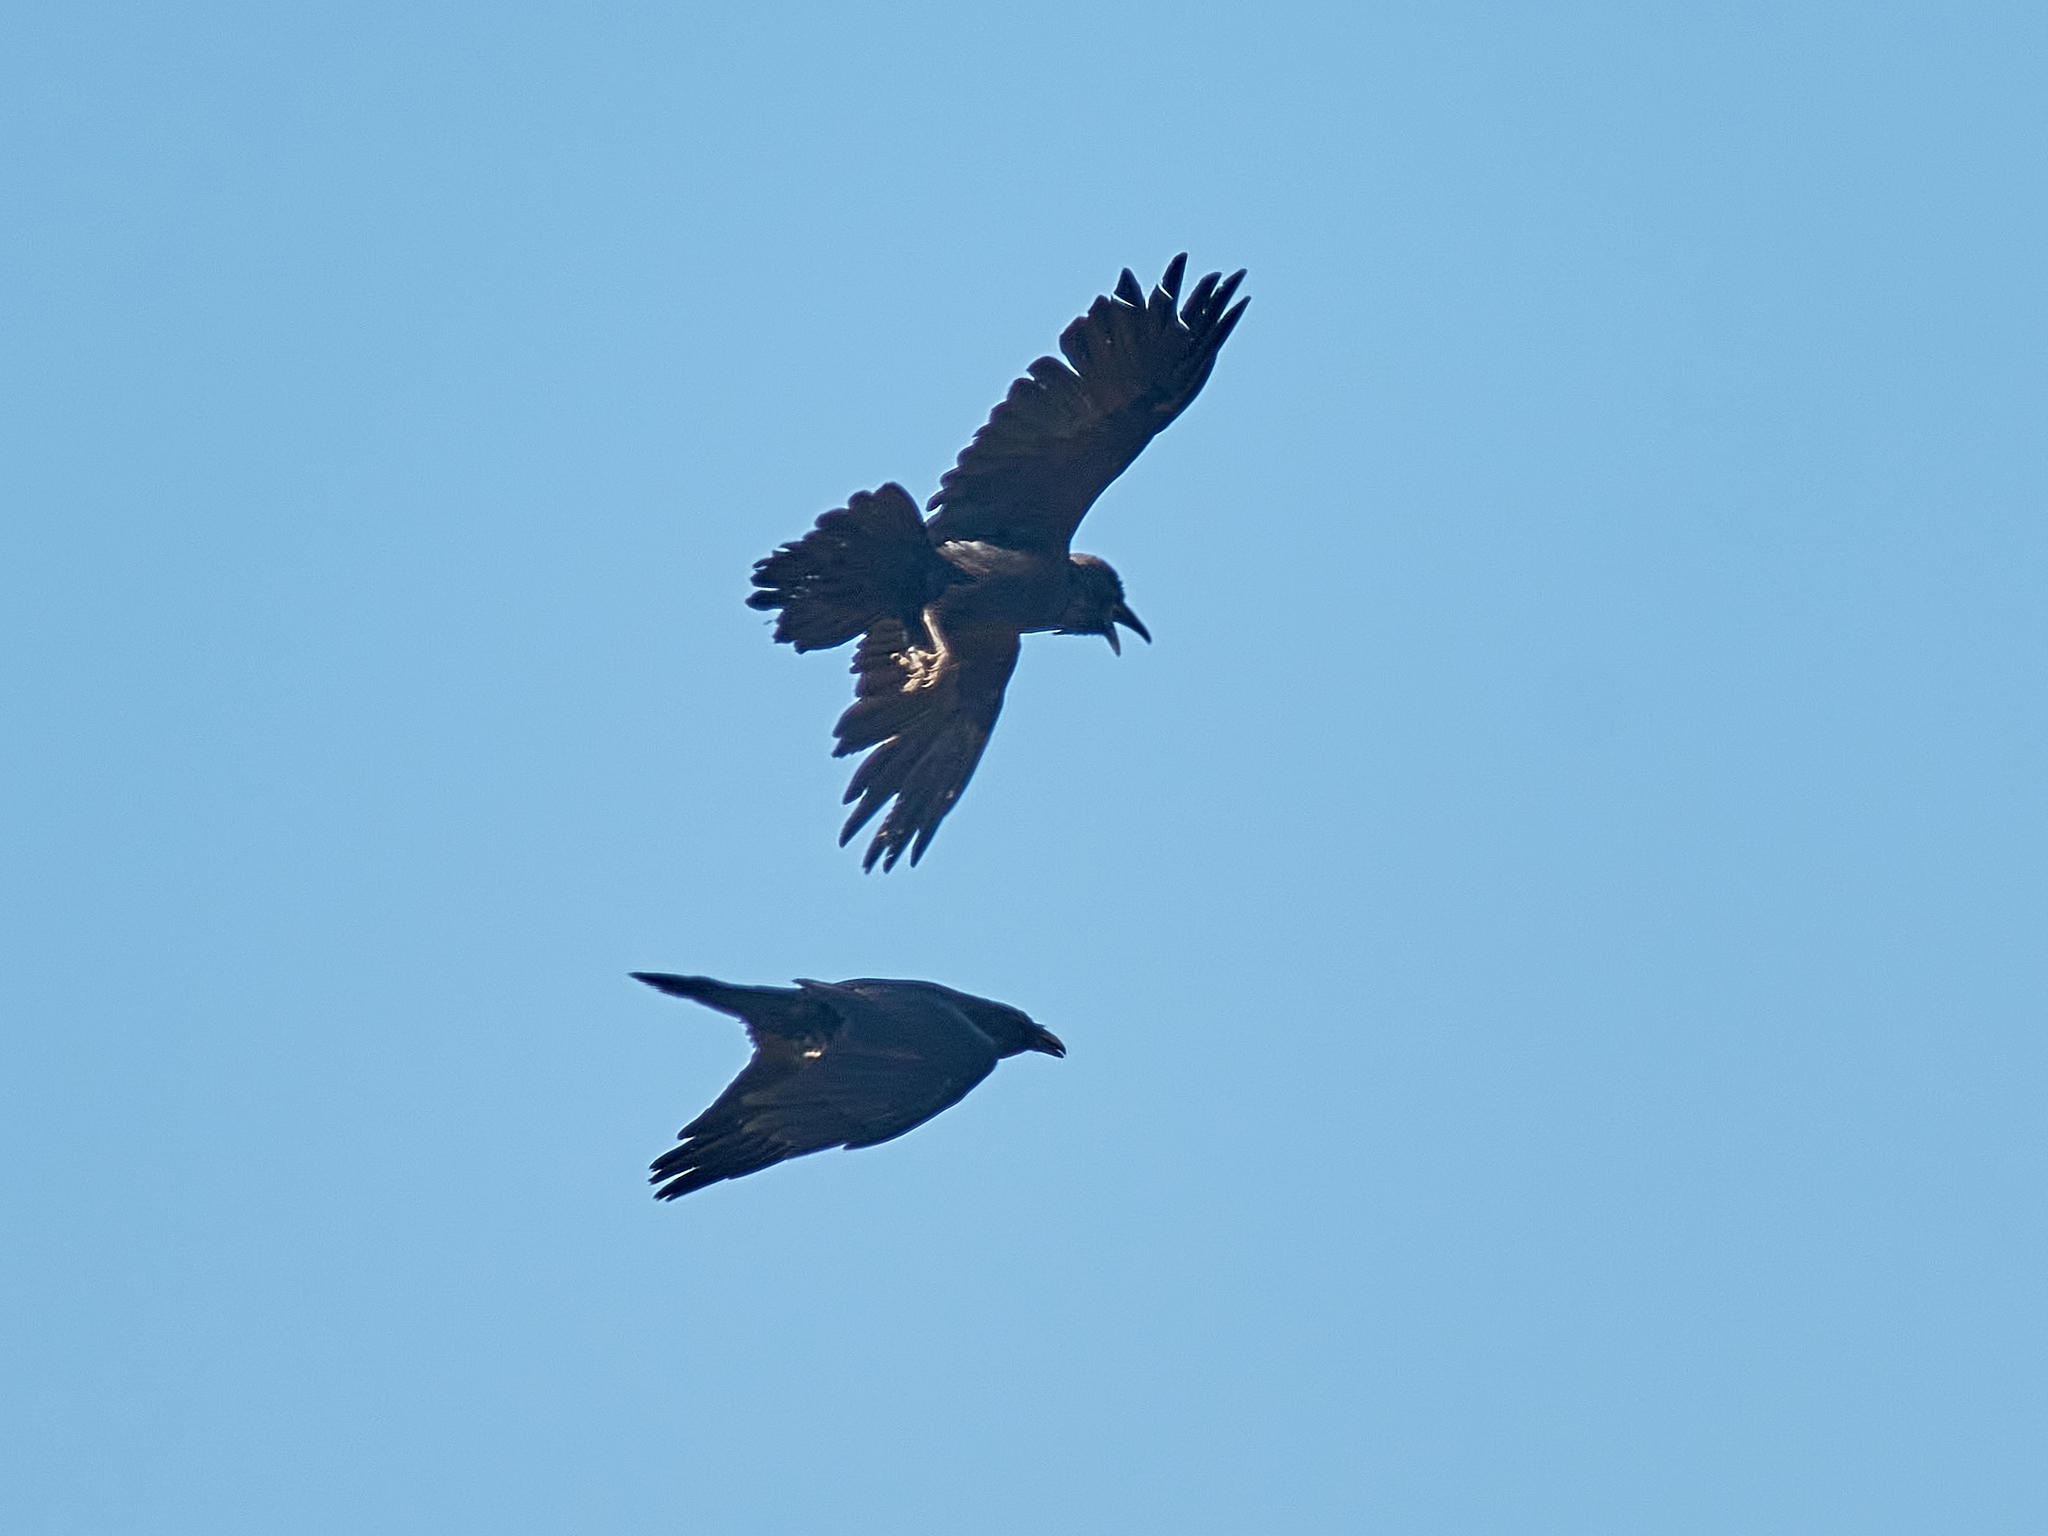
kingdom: Animalia
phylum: Chordata
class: Aves
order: Passeriformes
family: Corvidae
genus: Corvus
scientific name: Corvus corax
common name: Common raven
